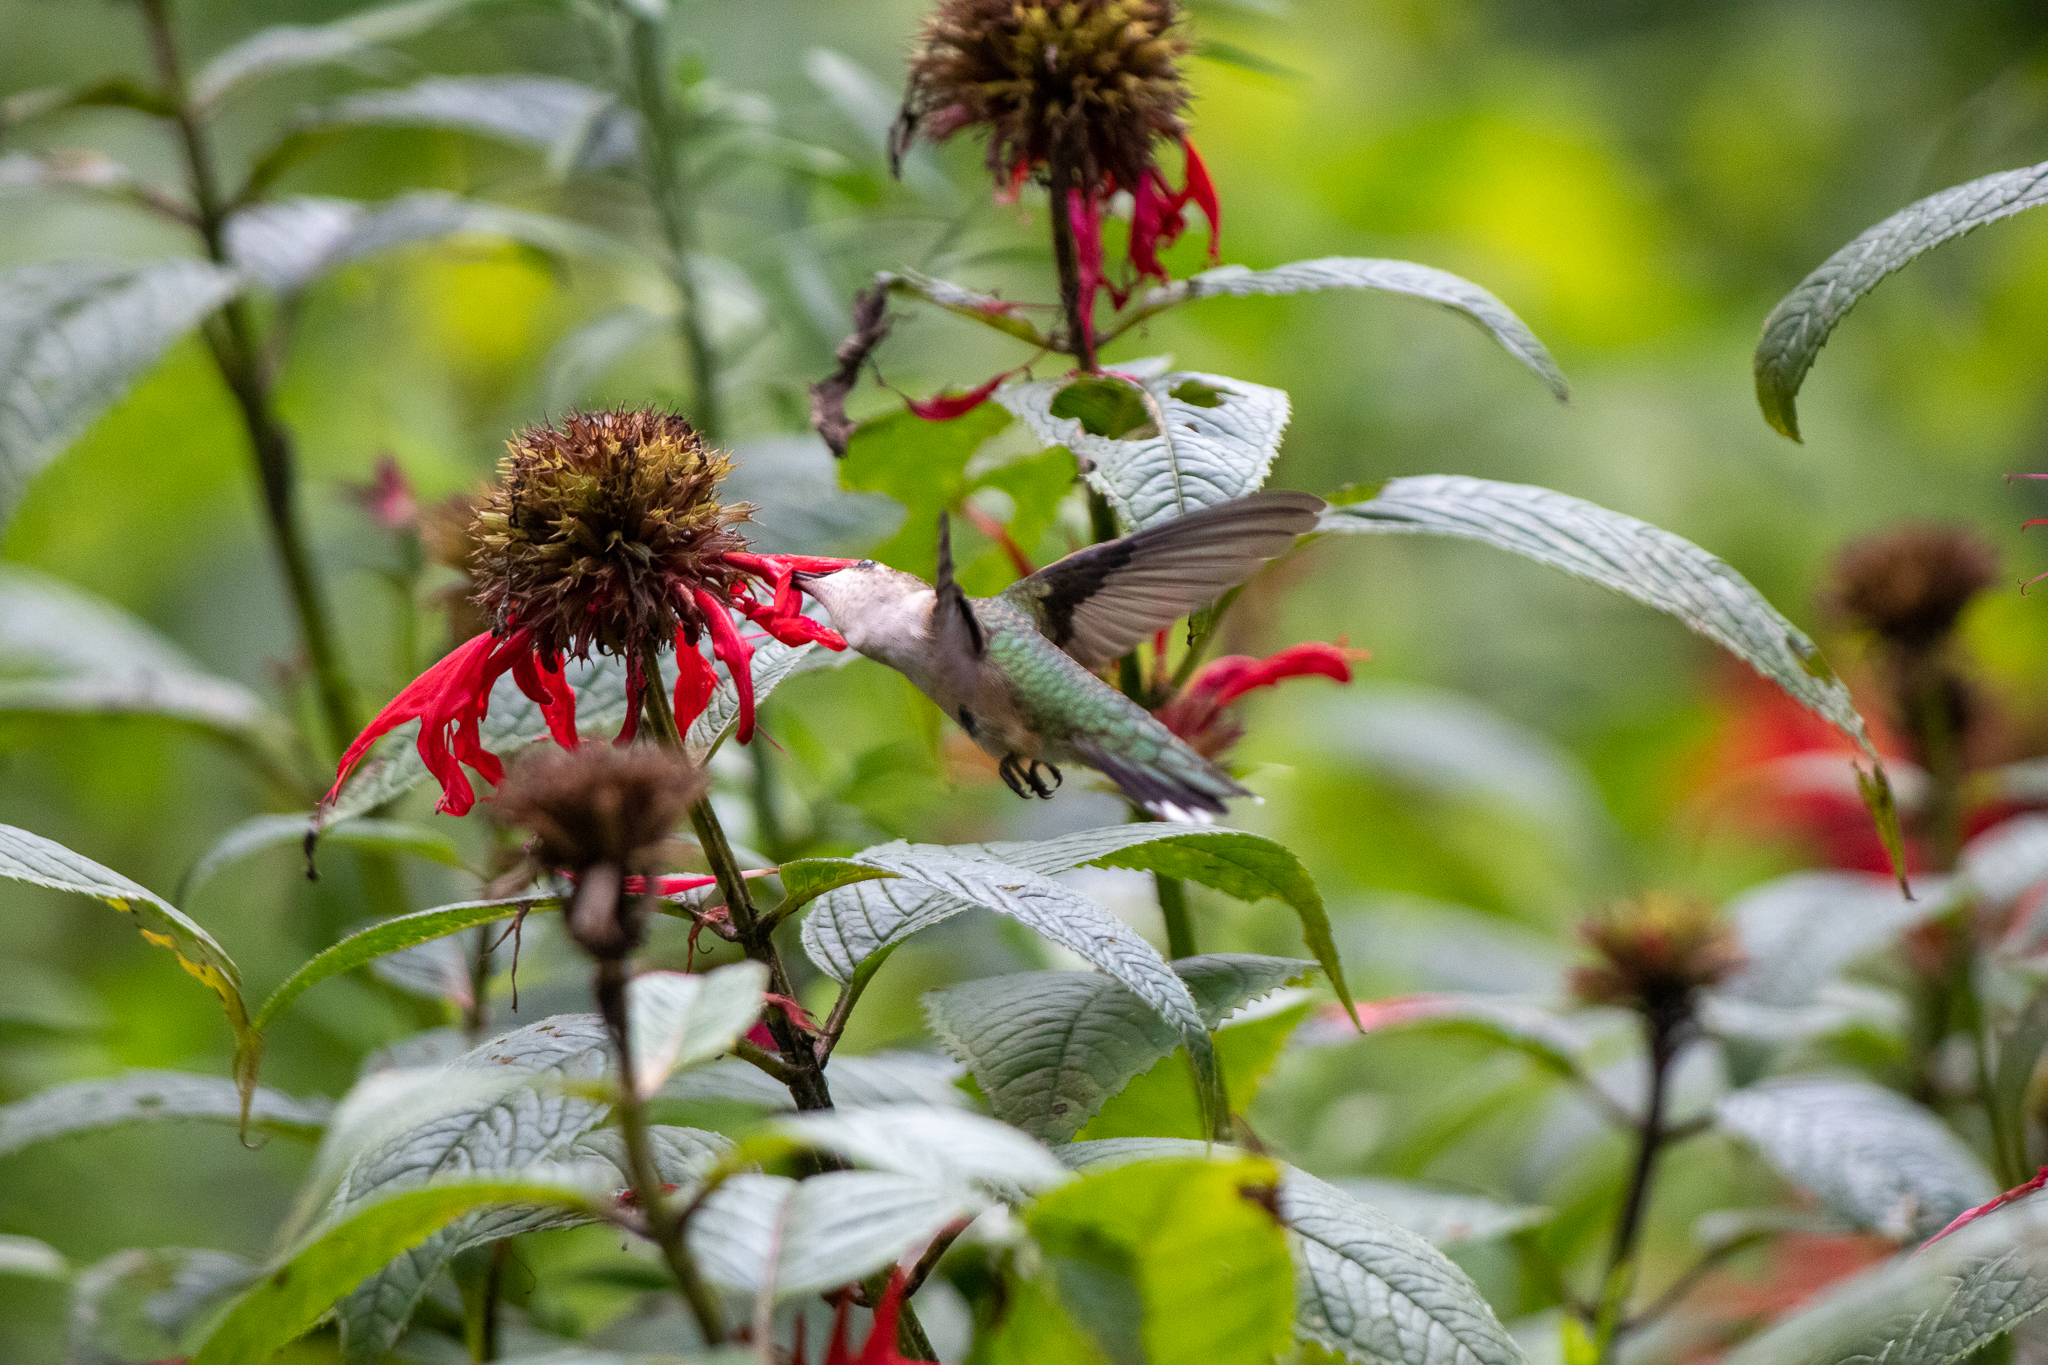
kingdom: Animalia
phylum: Chordata
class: Aves
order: Apodiformes
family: Trochilidae
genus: Archilochus
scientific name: Archilochus colubris
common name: Ruby-throated hummingbird
